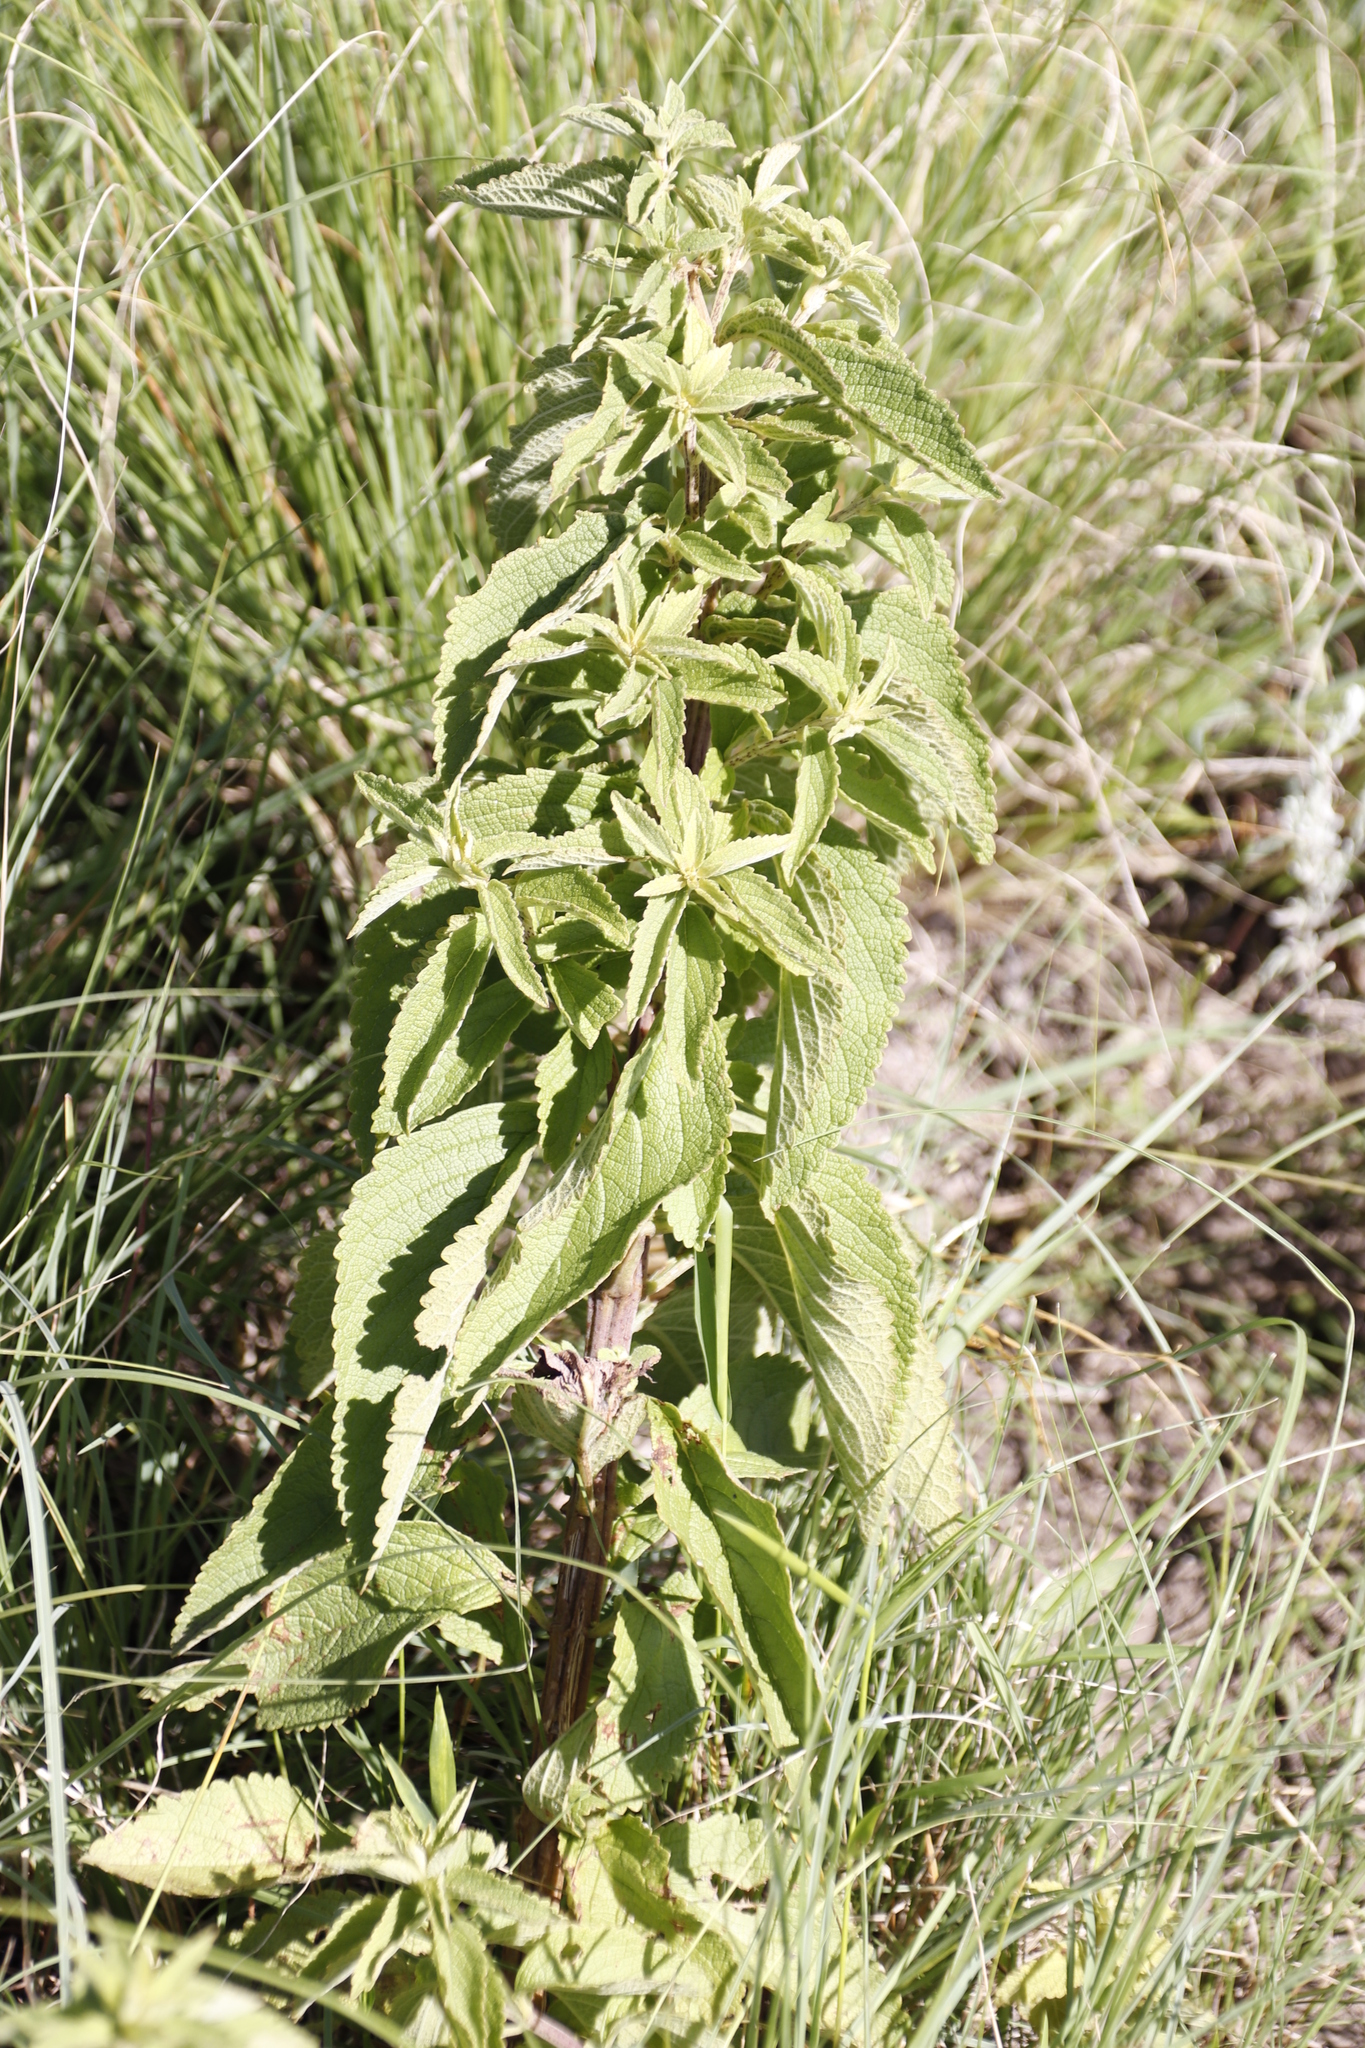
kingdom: Plantae
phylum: Tracheophyta
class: Magnoliopsida
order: Lamiales
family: Lamiaceae
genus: Coleus
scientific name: Coleus calycinus
